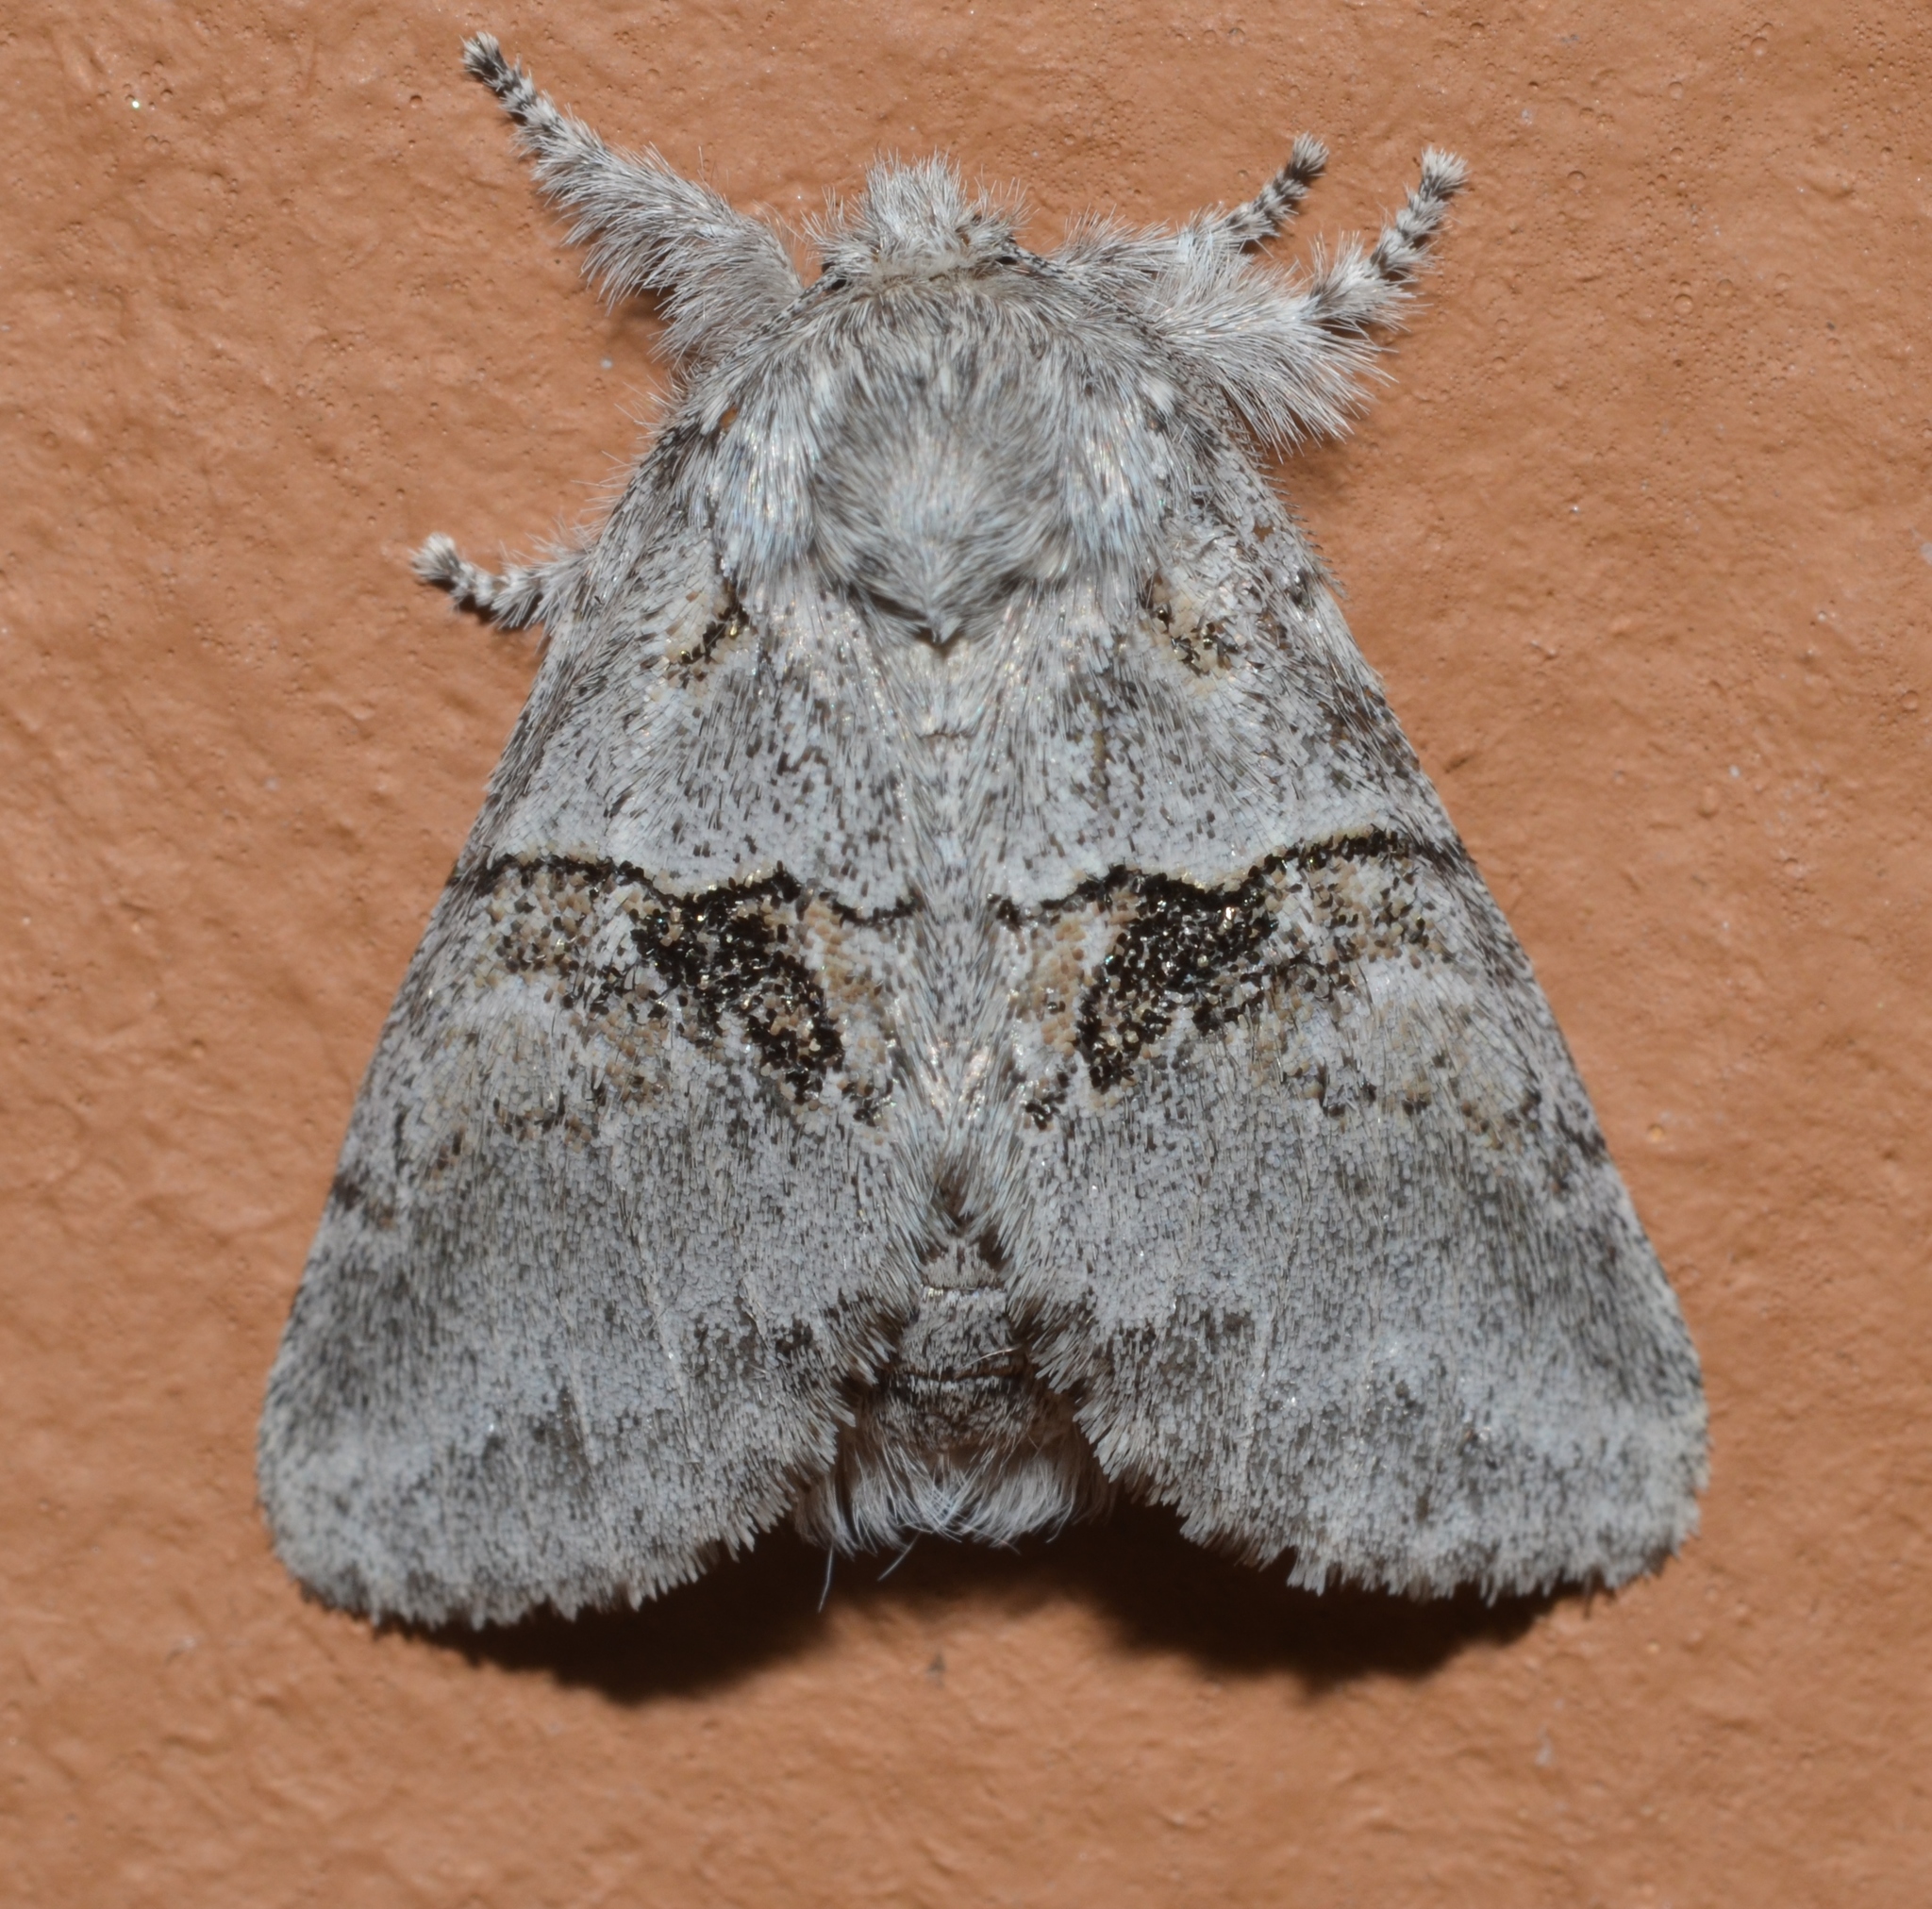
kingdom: Animalia
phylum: Arthropoda
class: Insecta
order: Lepidoptera
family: Notodontidae
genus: Gluphisia
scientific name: Gluphisia septentrionis
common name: Common gluphisia
